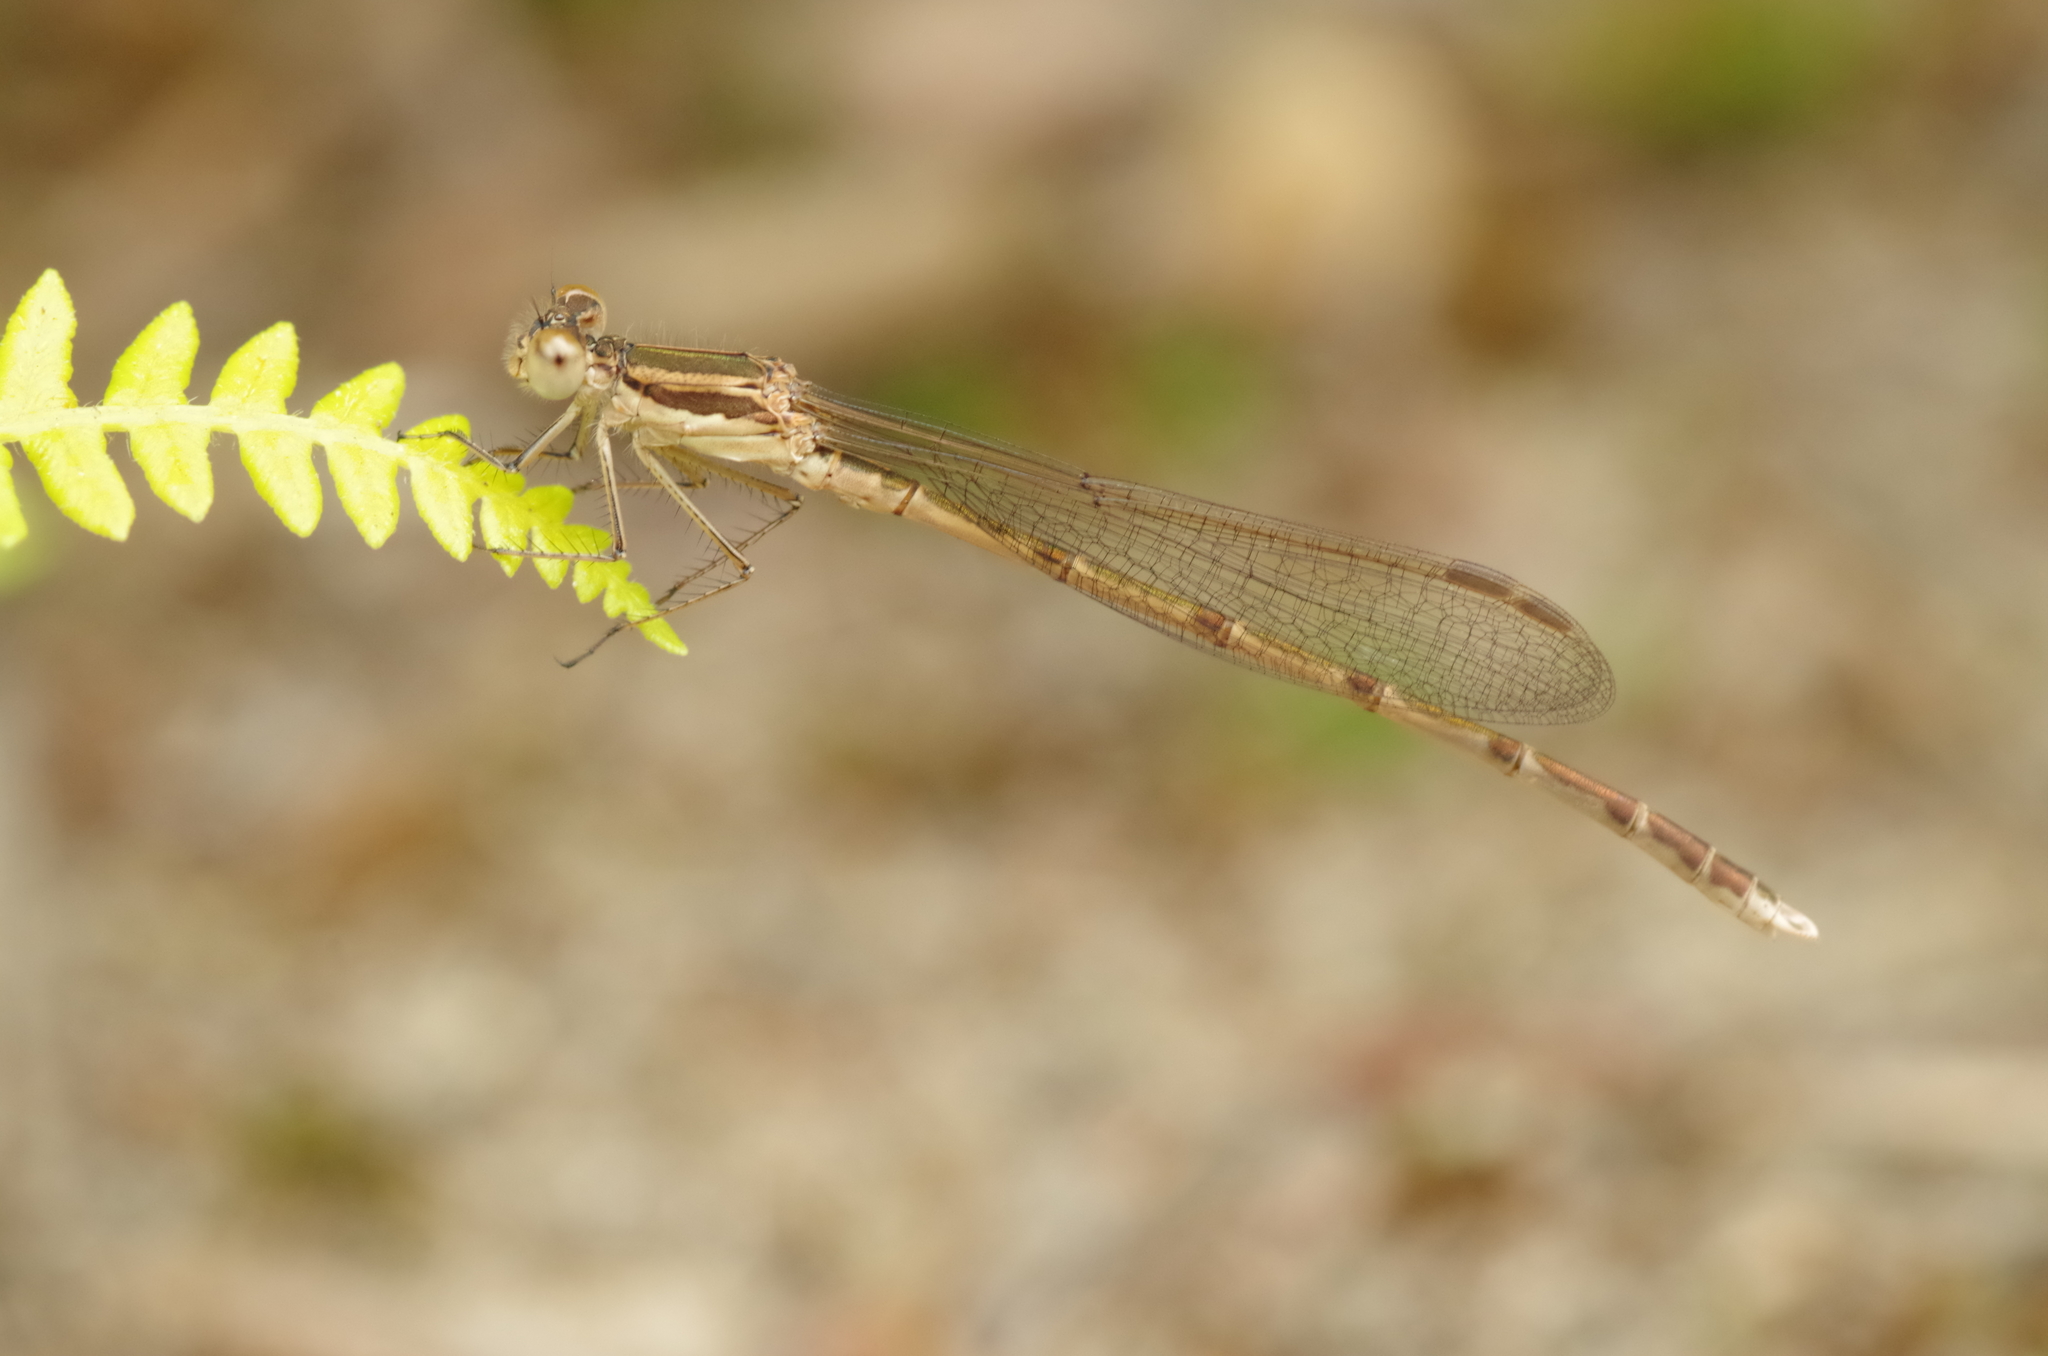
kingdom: Animalia
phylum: Arthropoda
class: Insecta
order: Odonata
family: Lestidae
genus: Sympecma
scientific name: Sympecma fusca
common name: Common winter damsel
